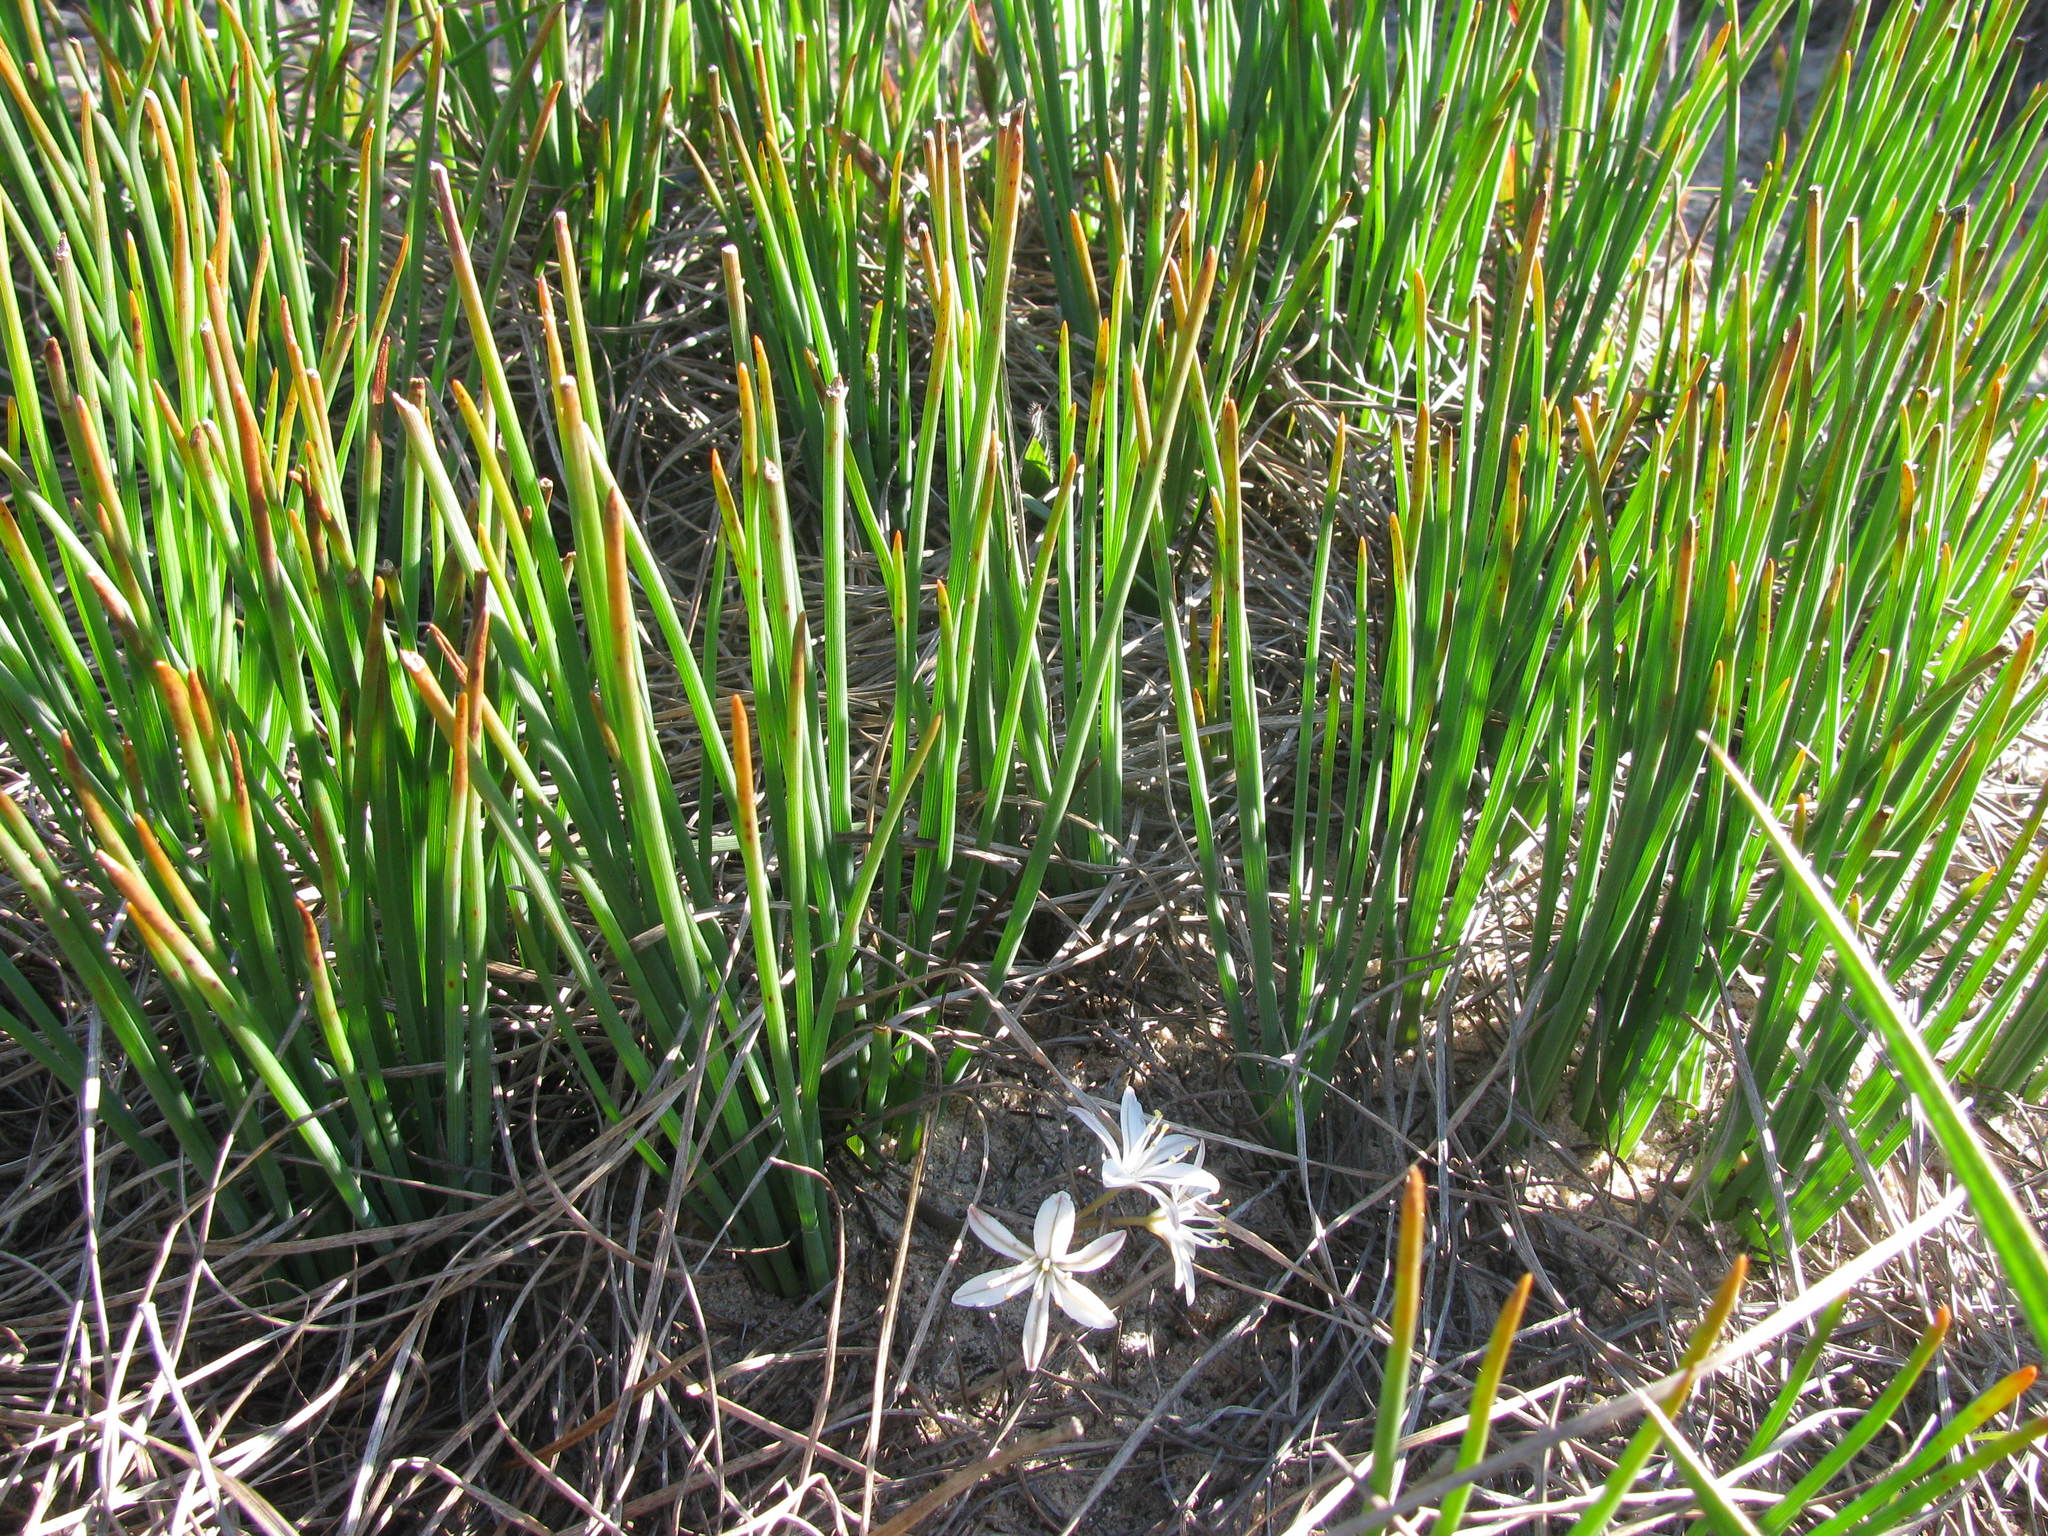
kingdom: Plantae
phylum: Tracheophyta
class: Liliopsida
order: Asparagales
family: Asphodelaceae
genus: Trachyandra
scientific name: Trachyandra chlamydophylla
